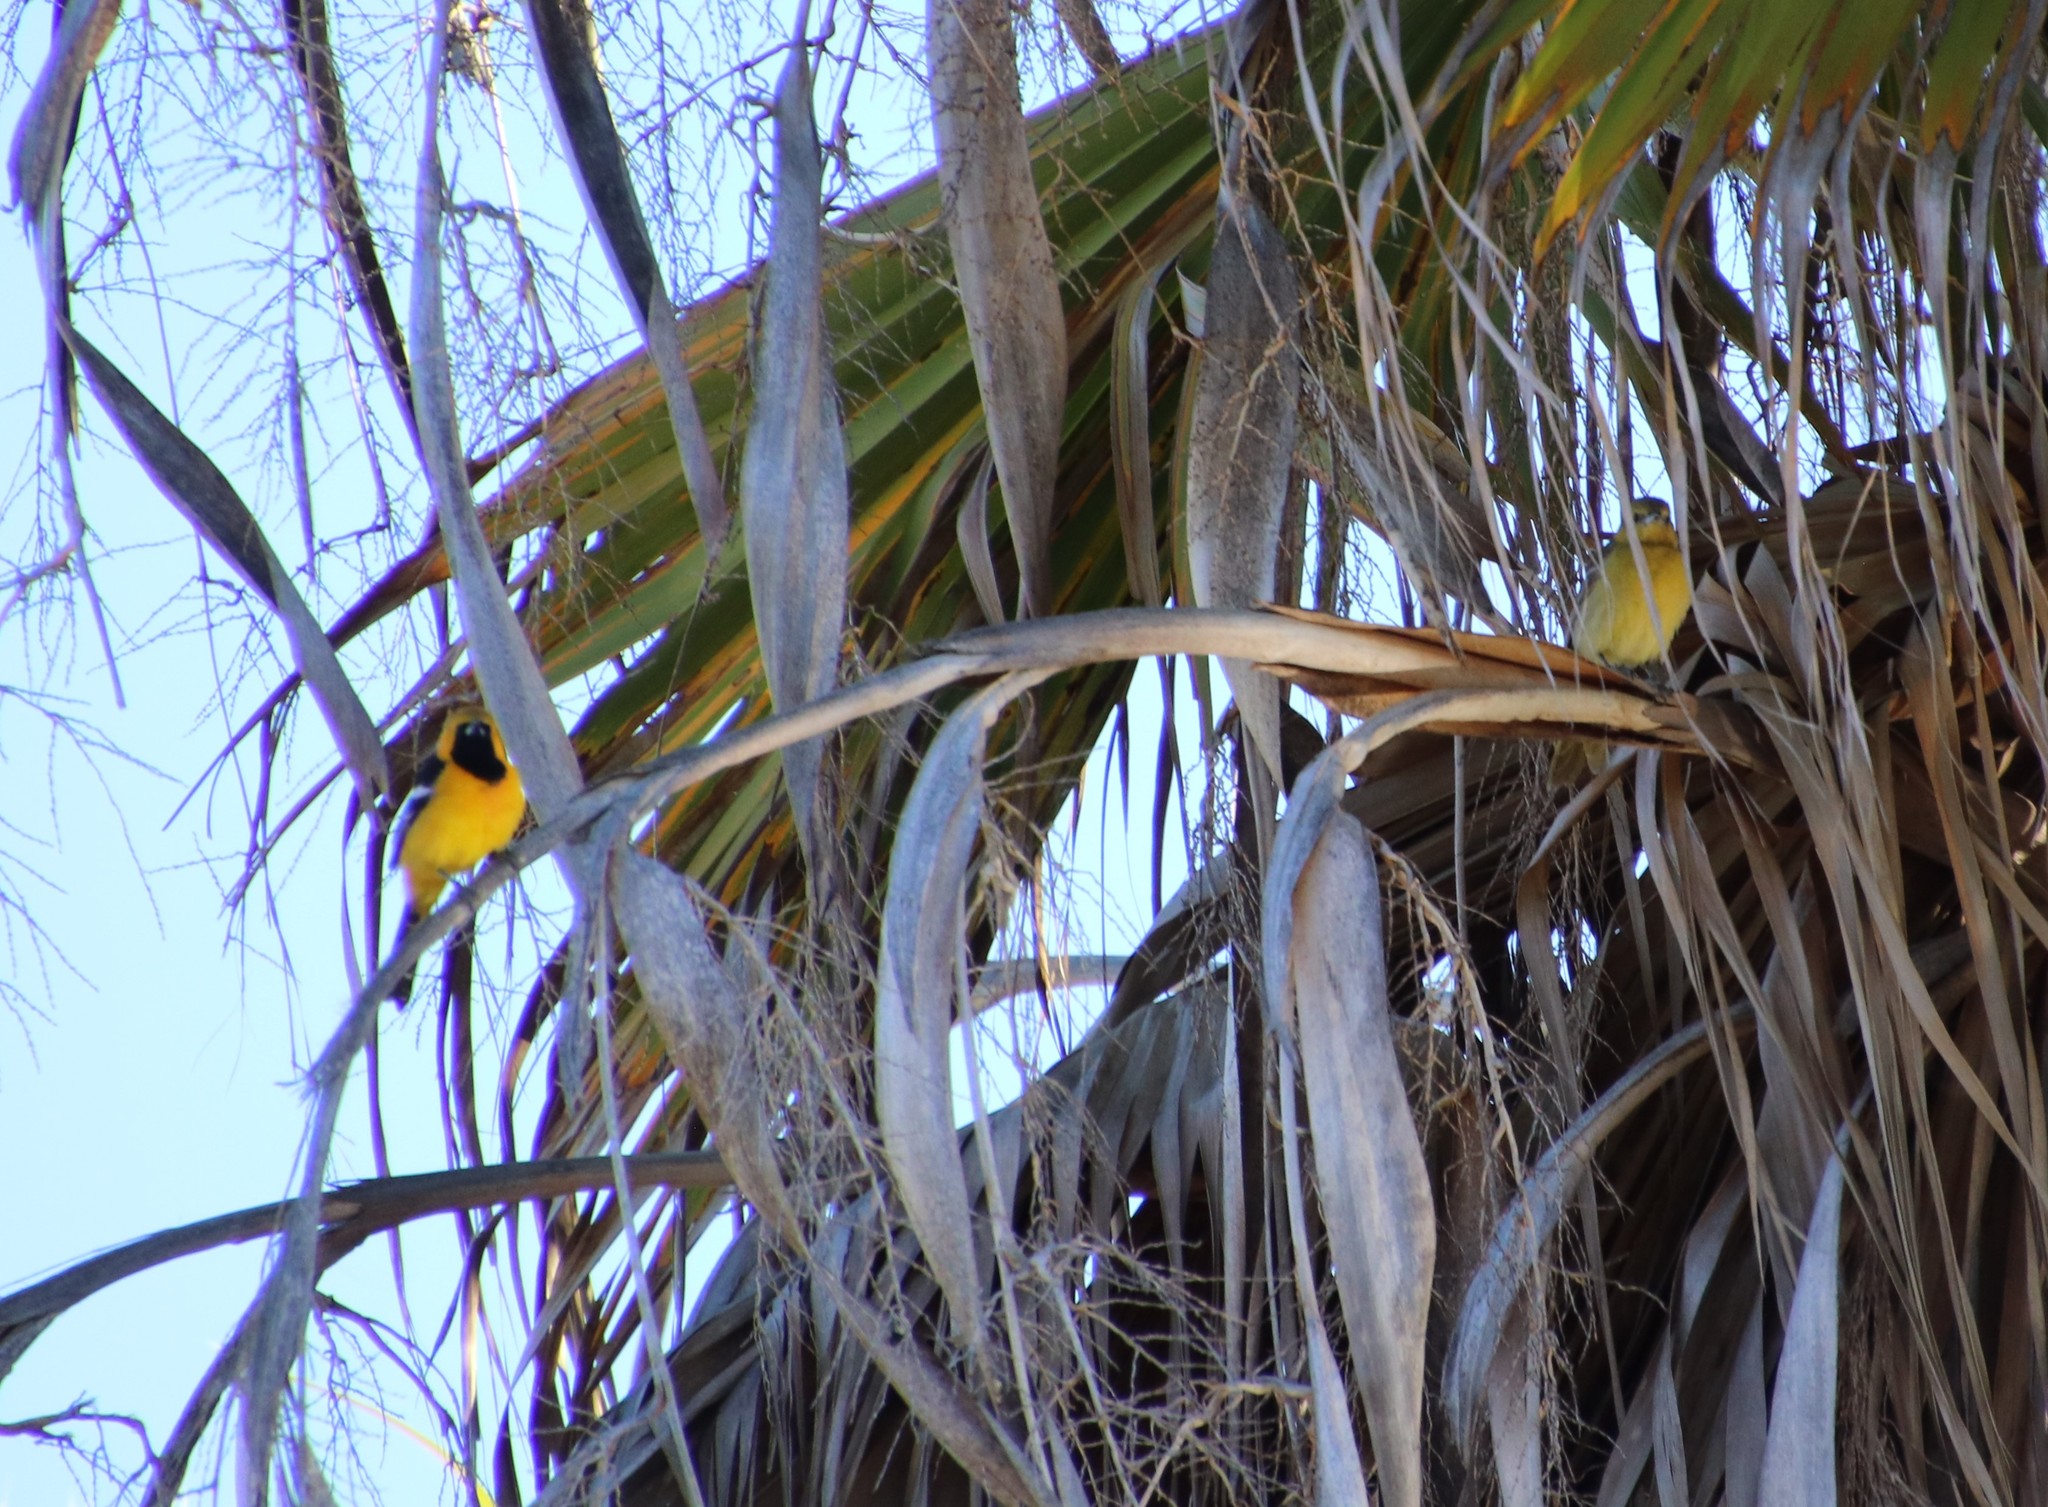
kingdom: Animalia
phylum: Chordata
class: Aves
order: Passeriformes
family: Icteridae
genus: Icterus
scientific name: Icterus cucullatus
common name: Hooded oriole
